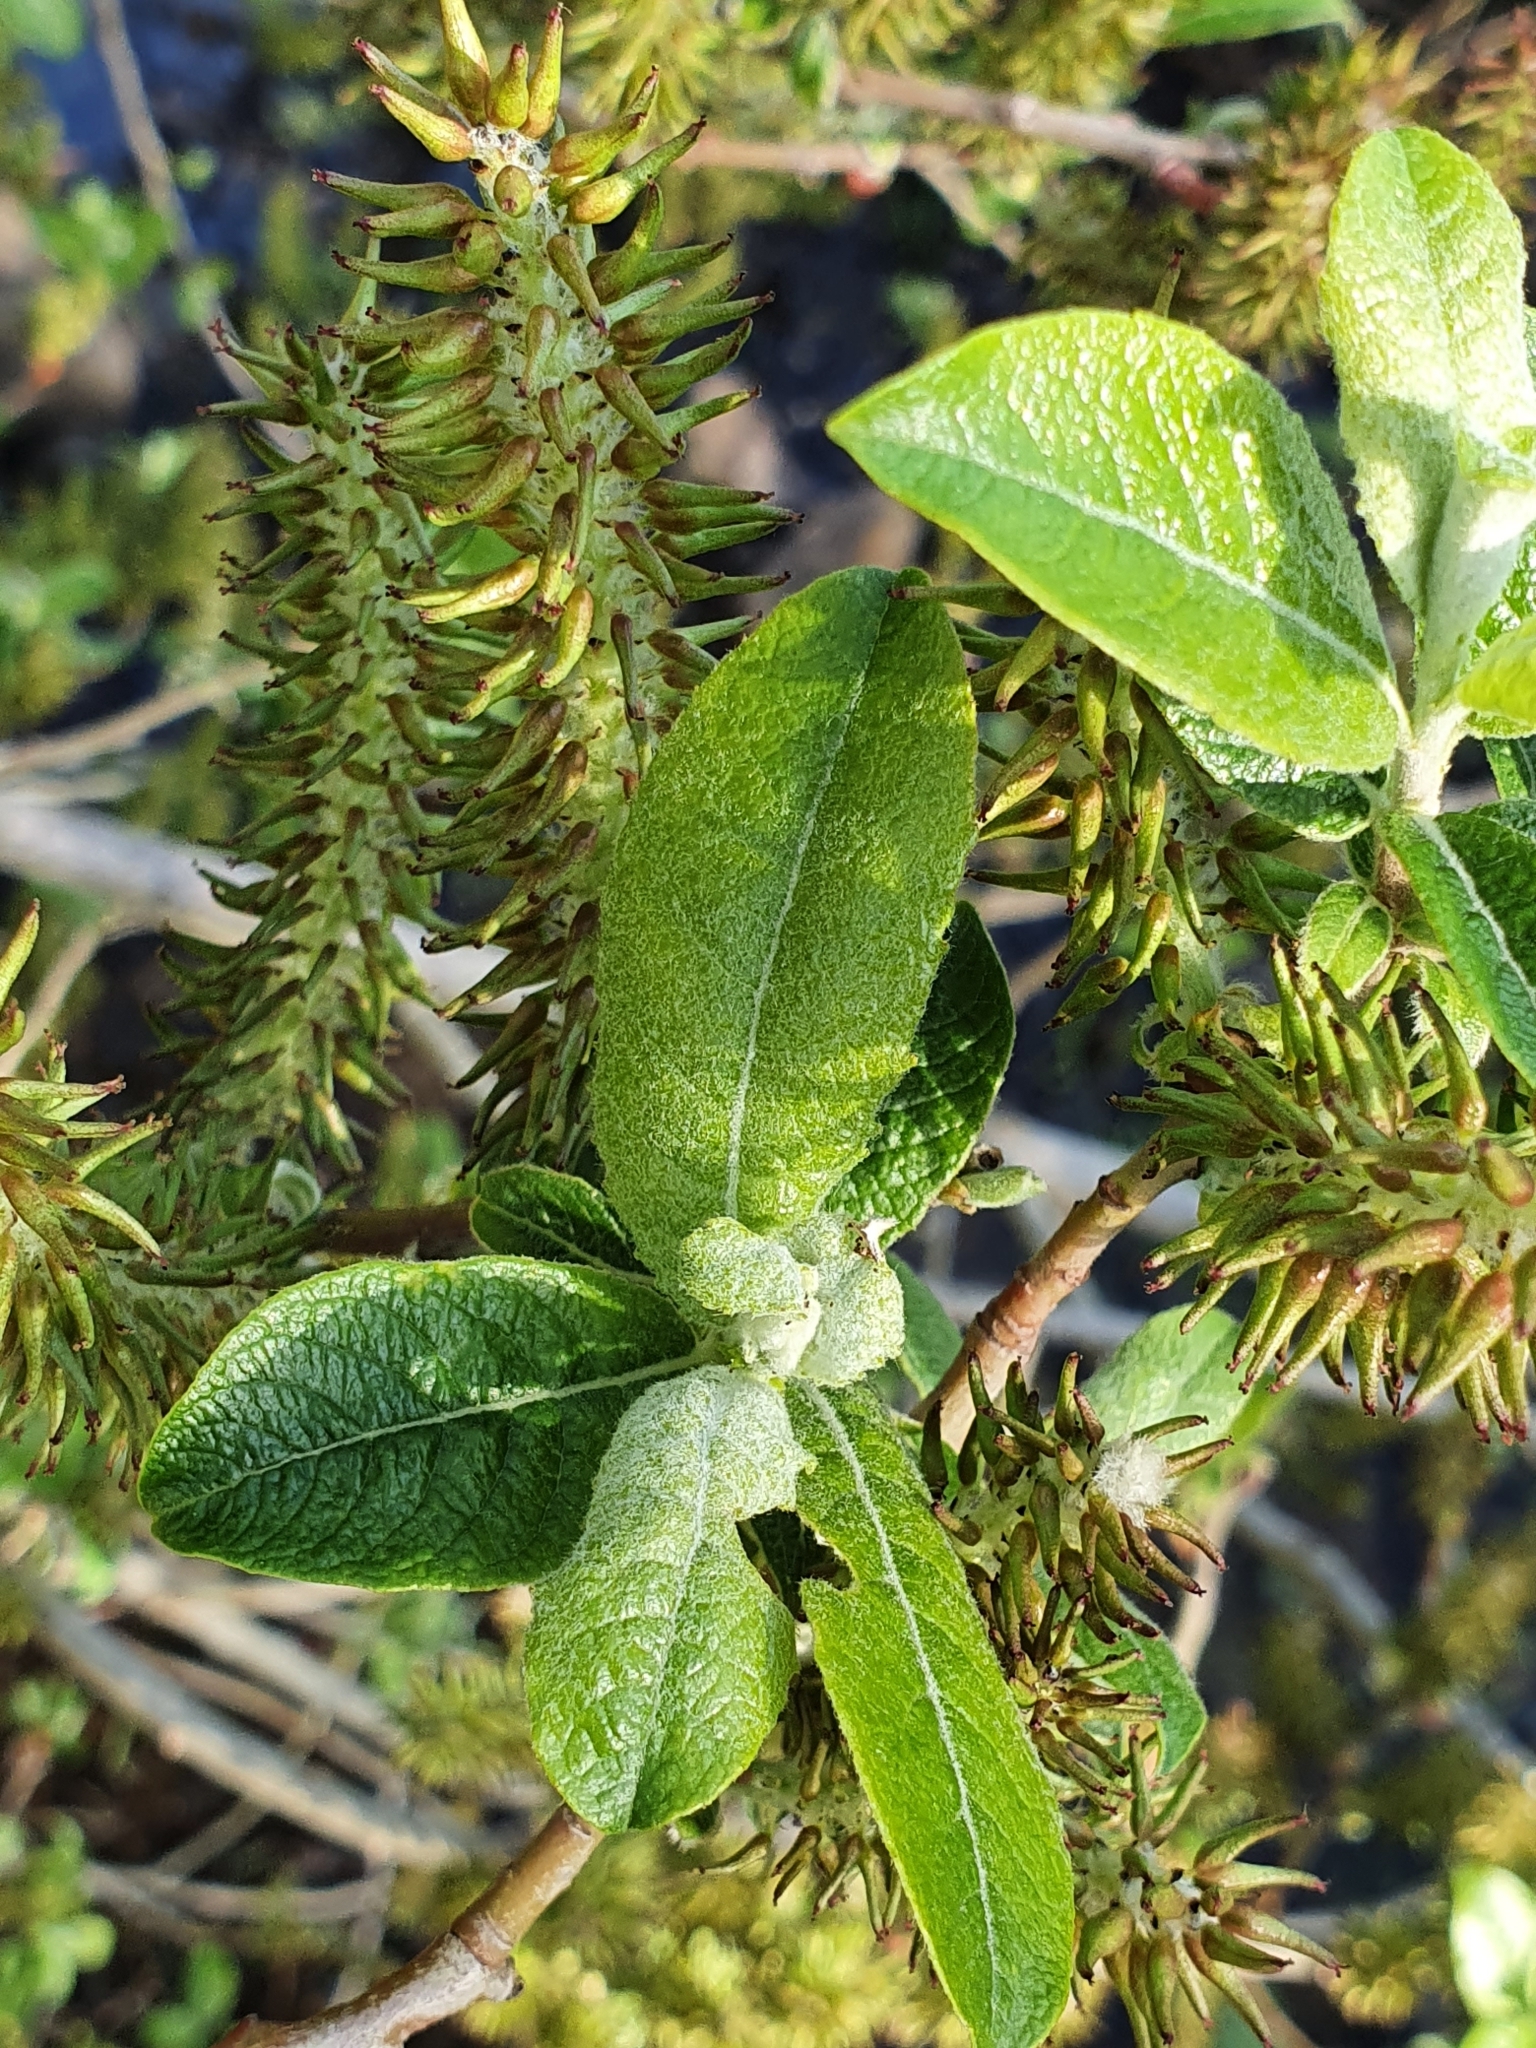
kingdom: Plantae
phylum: Tracheophyta
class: Magnoliopsida
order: Malpighiales
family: Salicaceae
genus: Salix
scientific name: Salix pedicellata
